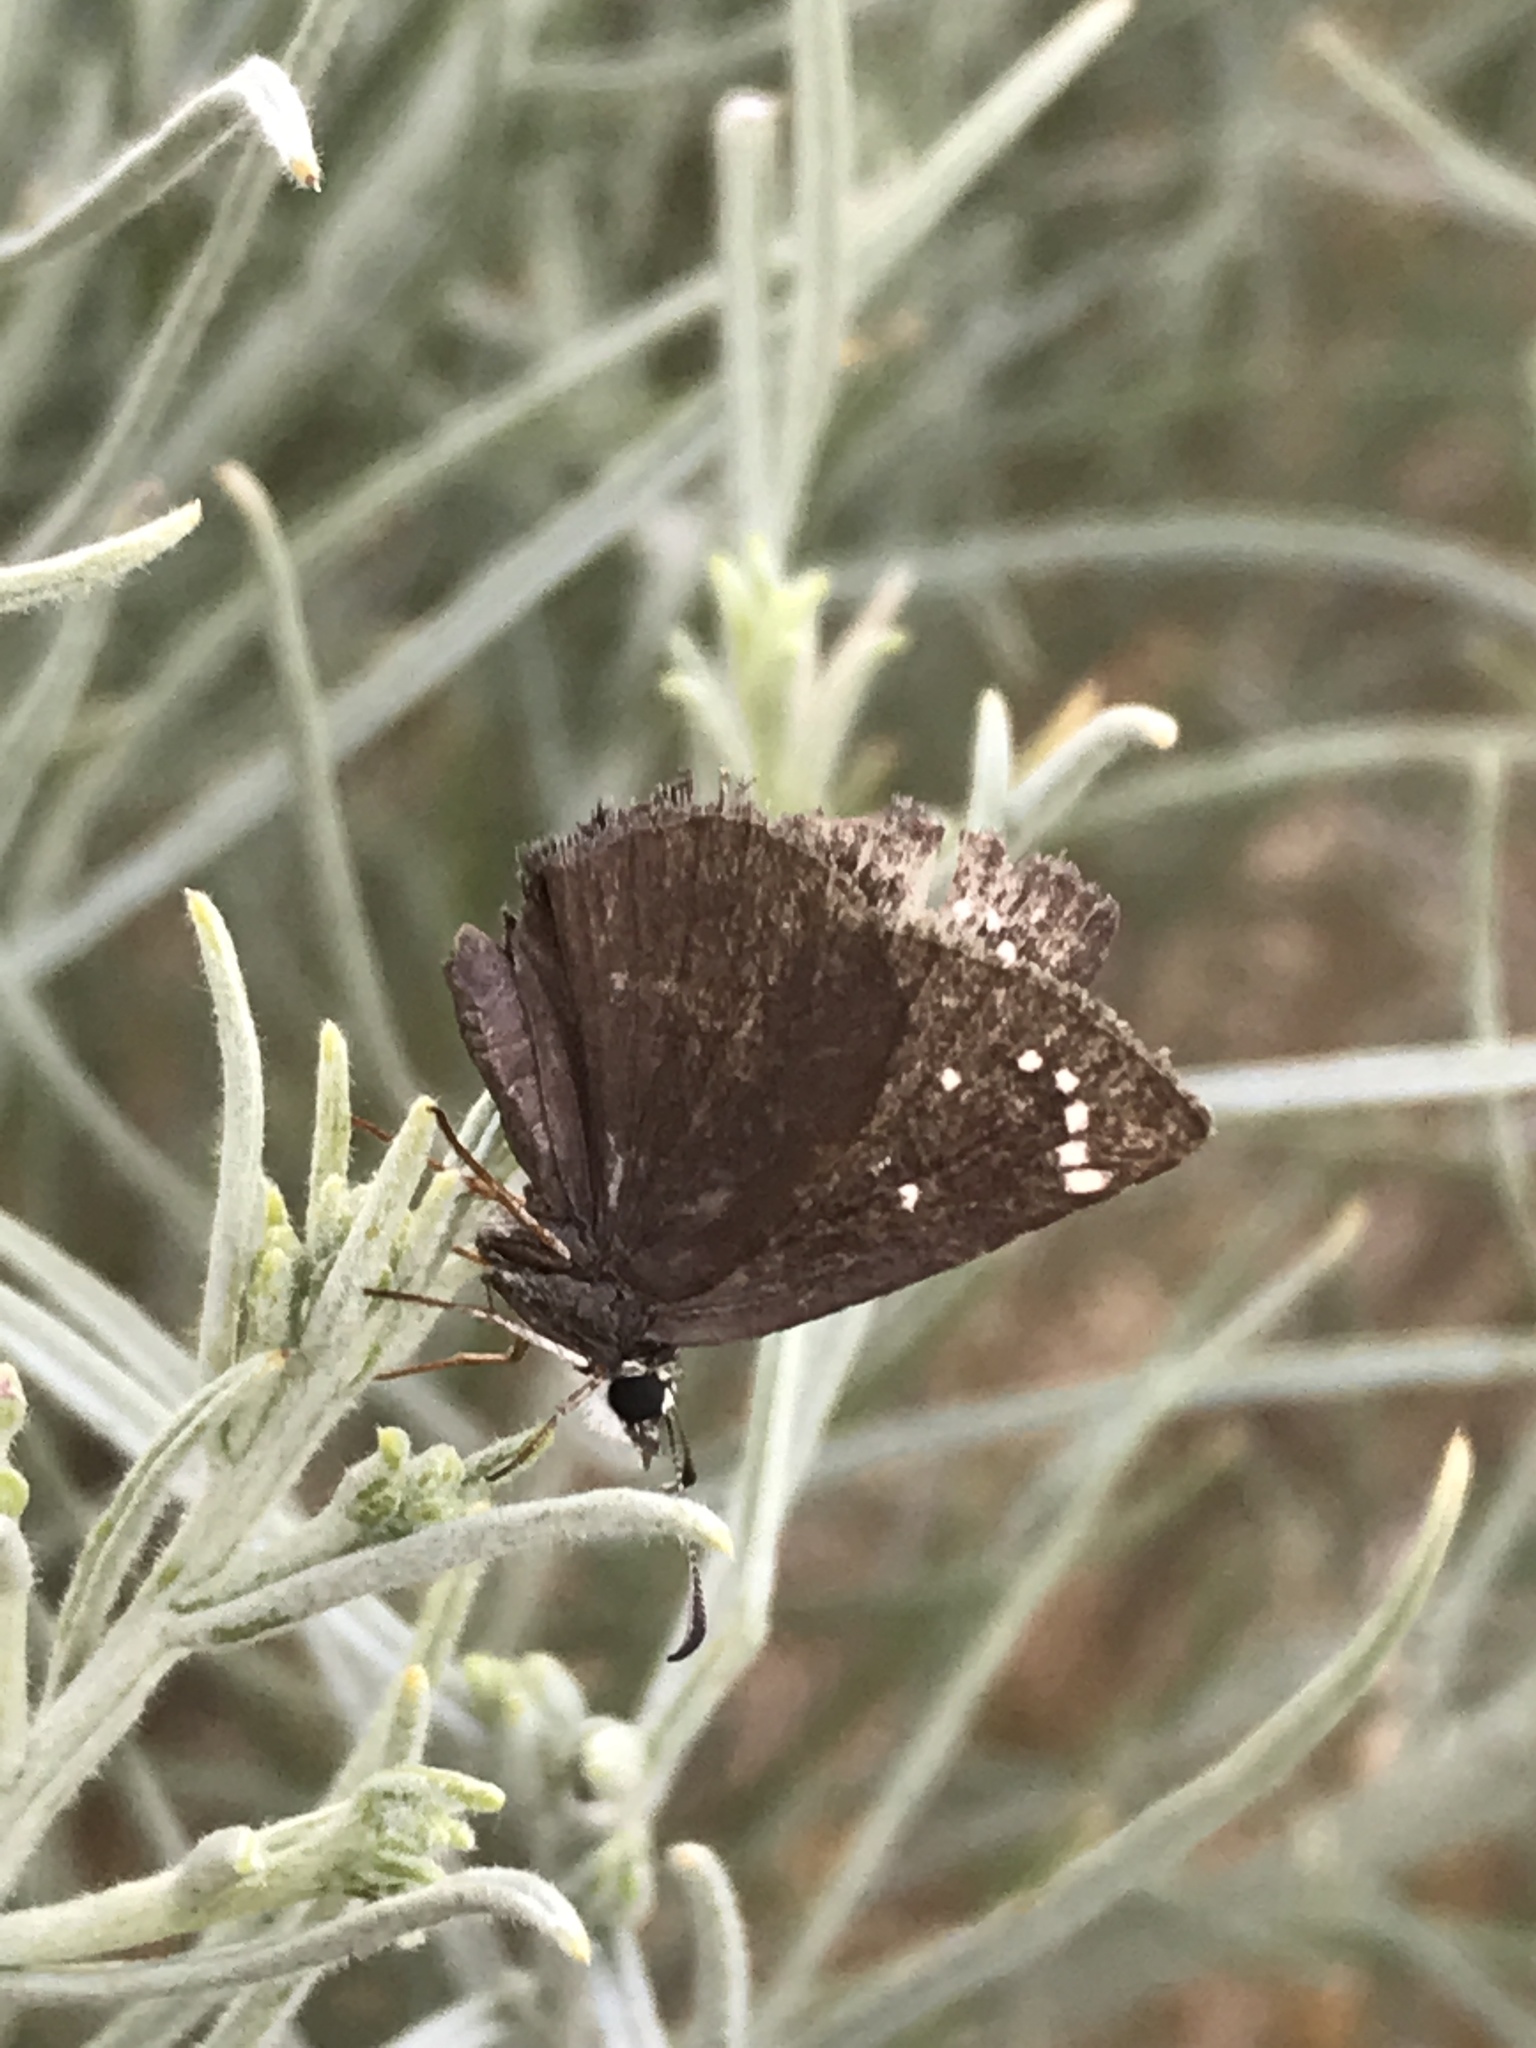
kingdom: Animalia
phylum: Arthropoda
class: Insecta
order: Lepidoptera
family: Hesperiidae
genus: Pholisora
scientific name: Pholisora catullus
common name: Common sootywing
